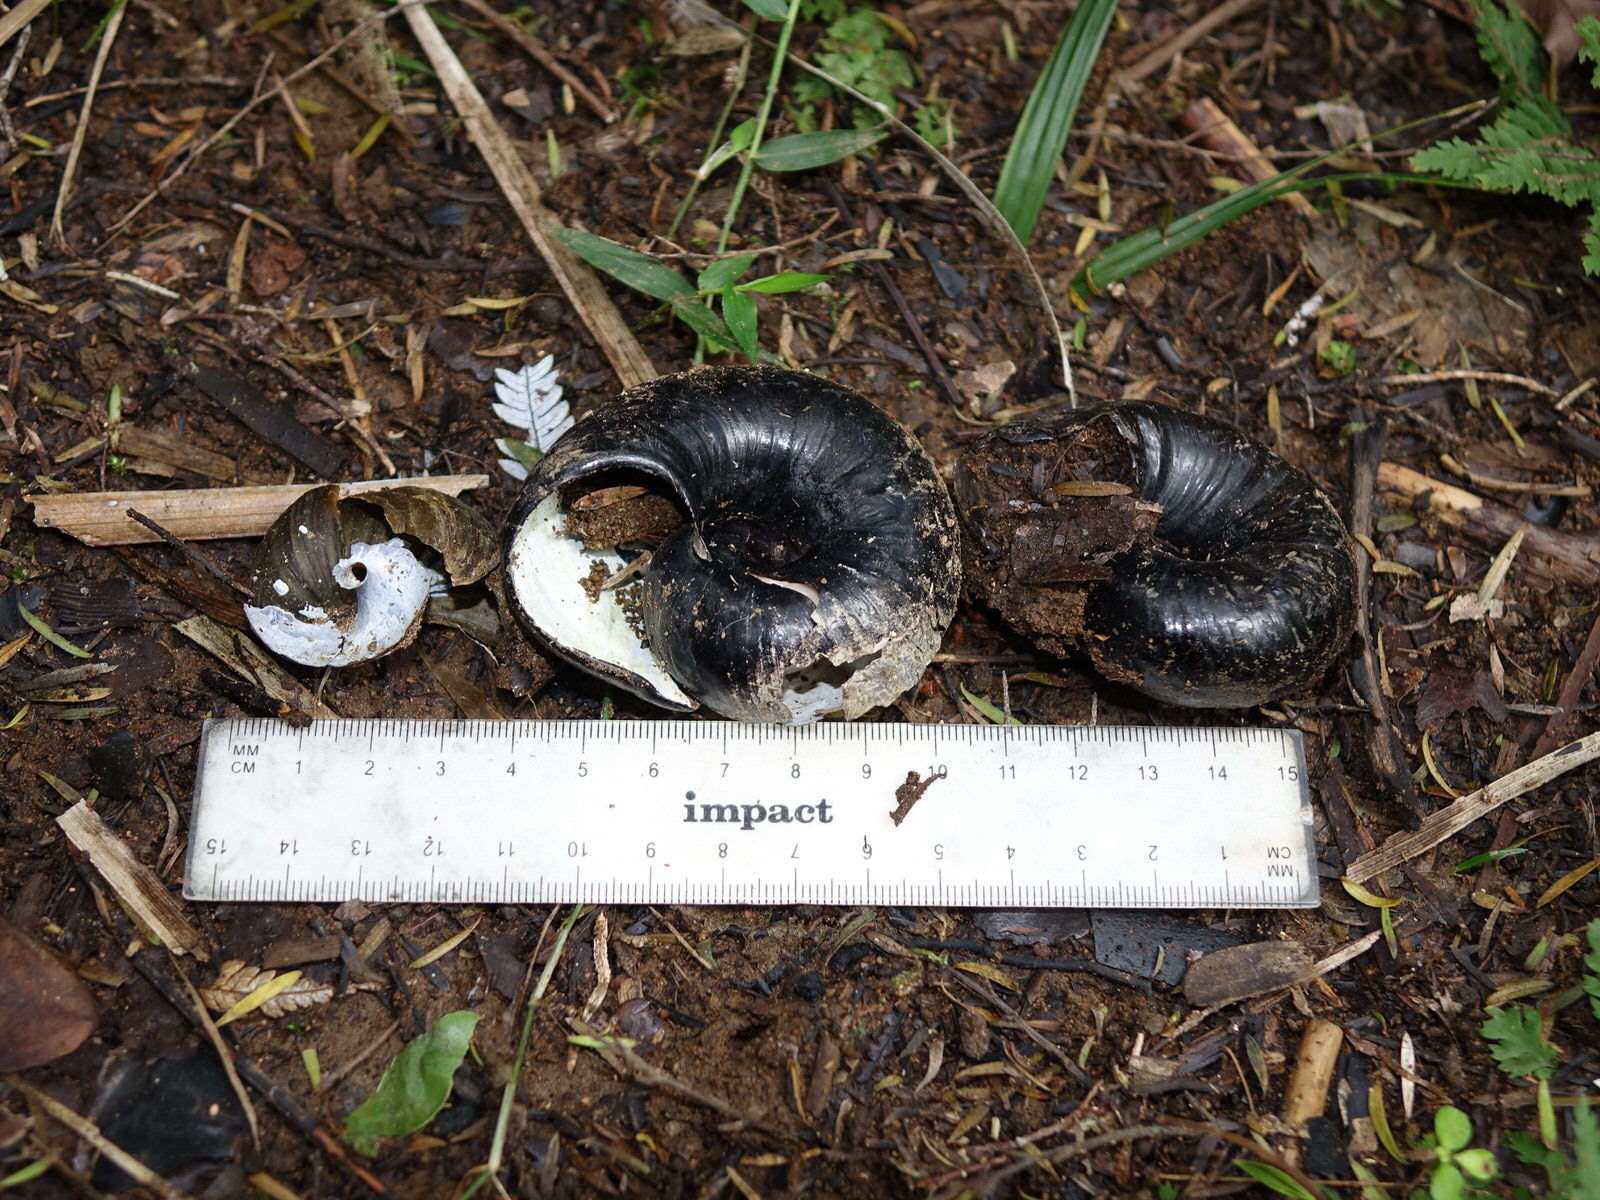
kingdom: Animalia
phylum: Mollusca
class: Gastropoda
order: Stylommatophora
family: Rhytididae
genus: Paryphanta
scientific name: Paryphanta busbyi
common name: Kauri snail
